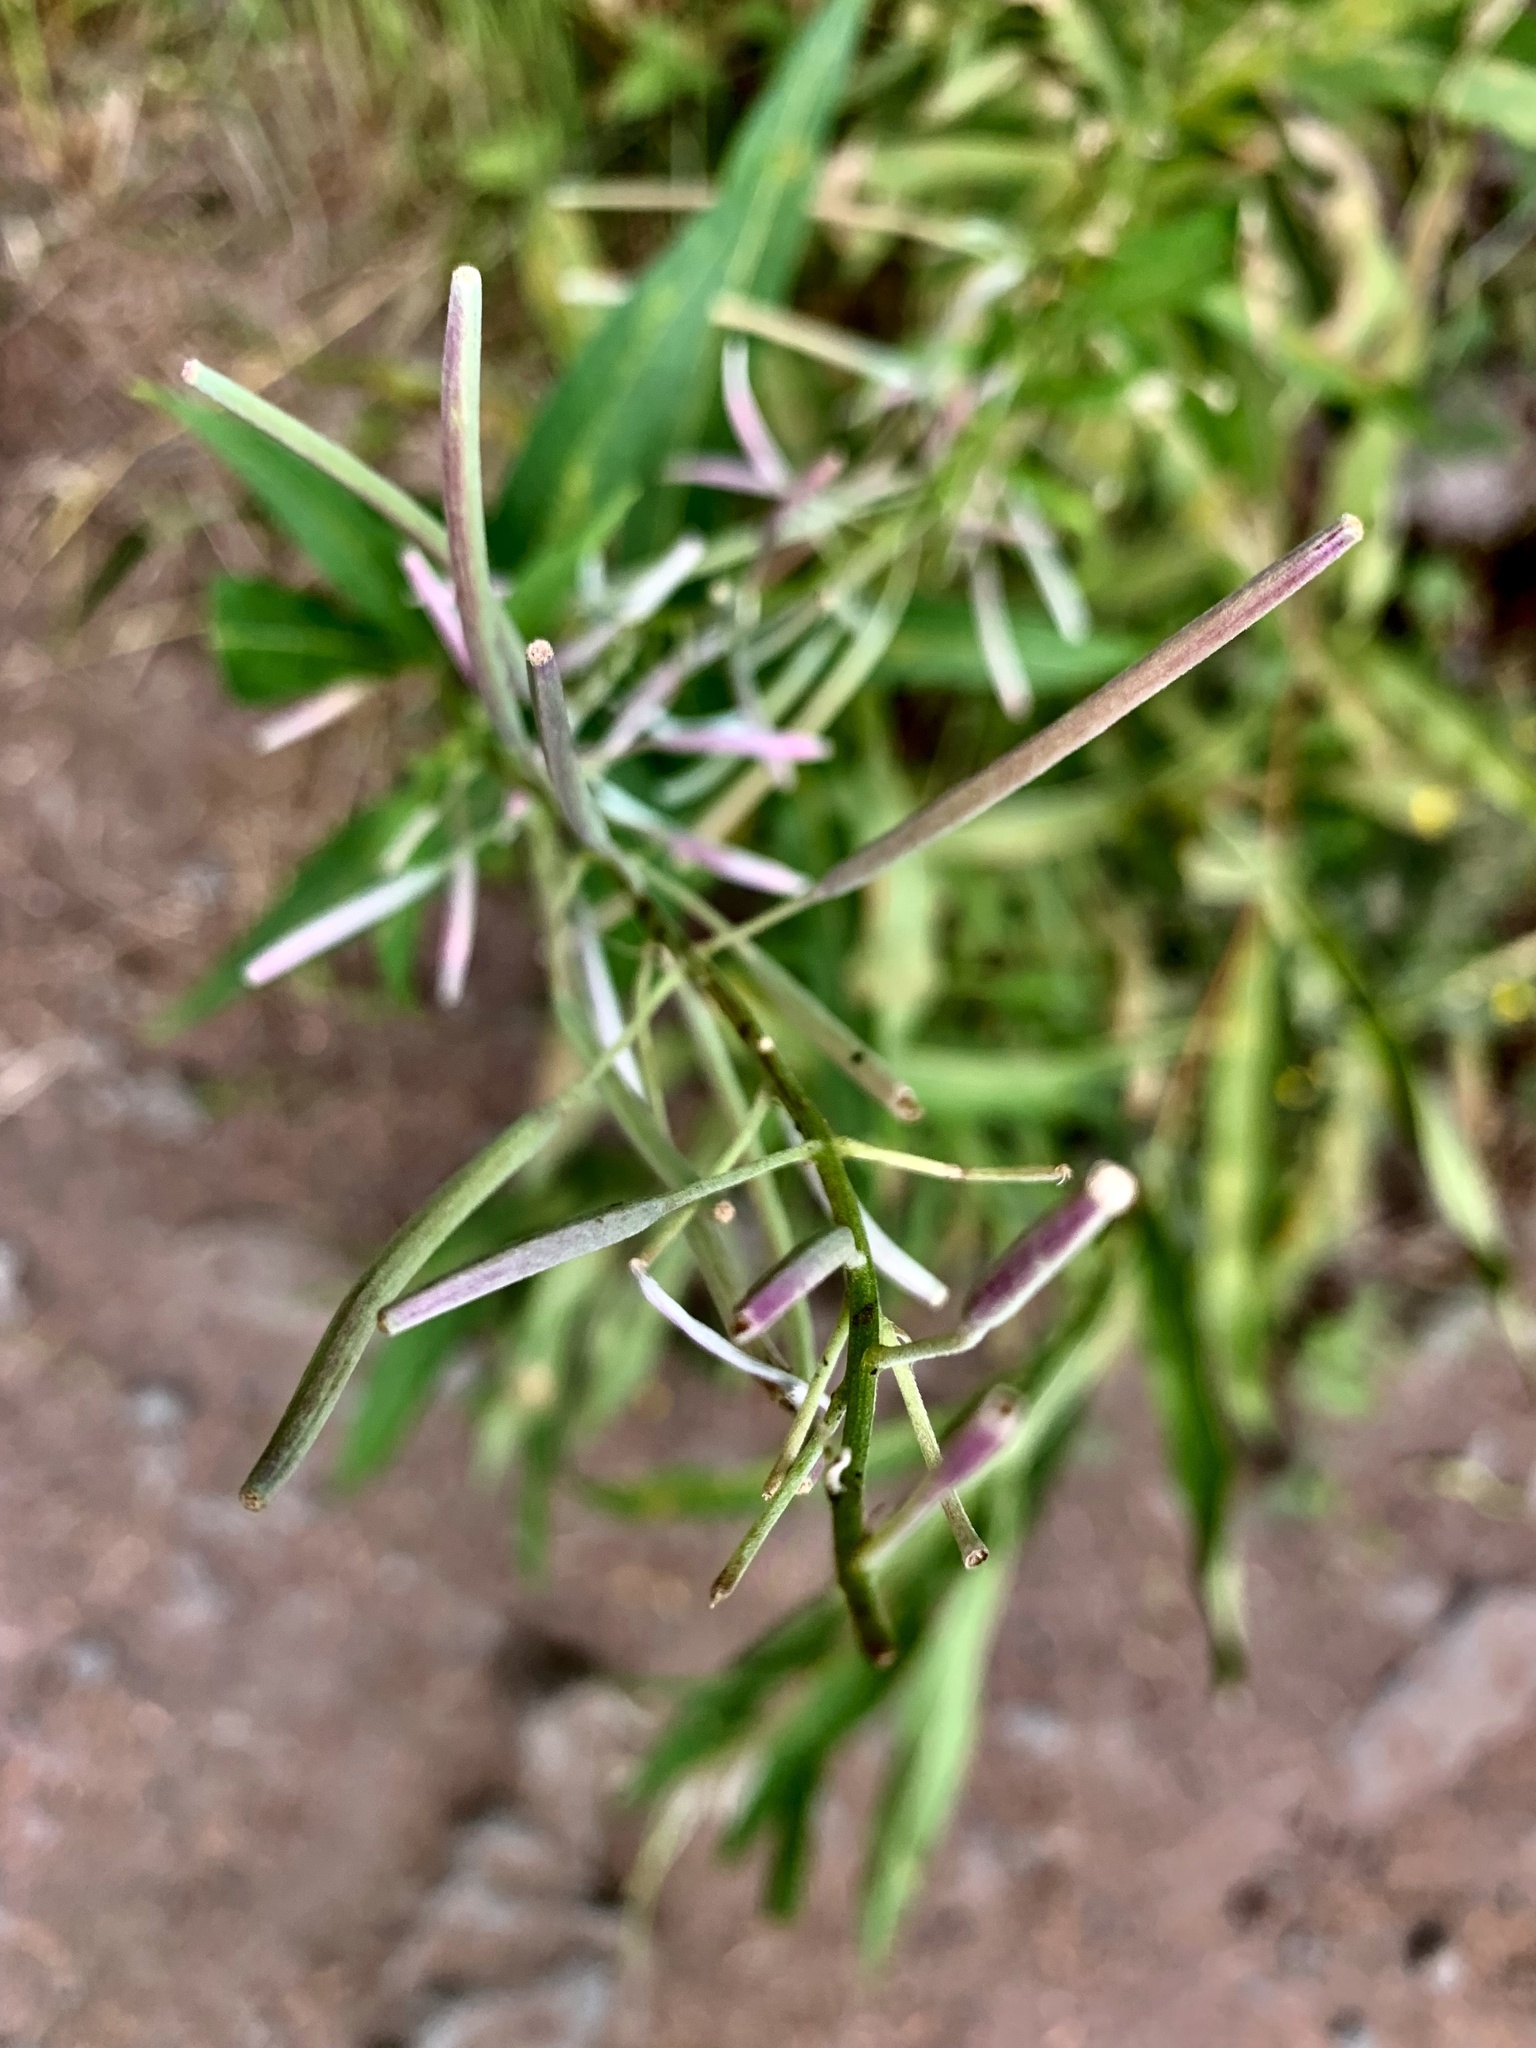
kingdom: Plantae
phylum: Tracheophyta
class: Magnoliopsida
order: Myrtales
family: Onagraceae
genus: Chamaenerion
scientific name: Chamaenerion angustifolium
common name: Fireweed
